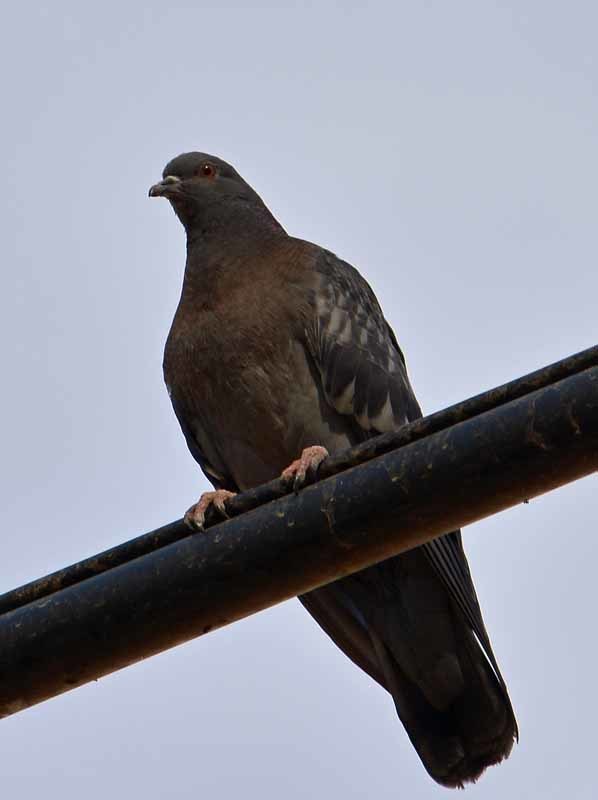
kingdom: Animalia
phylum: Chordata
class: Aves
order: Columbiformes
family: Columbidae
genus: Columba
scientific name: Columba livia
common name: Rock pigeon
